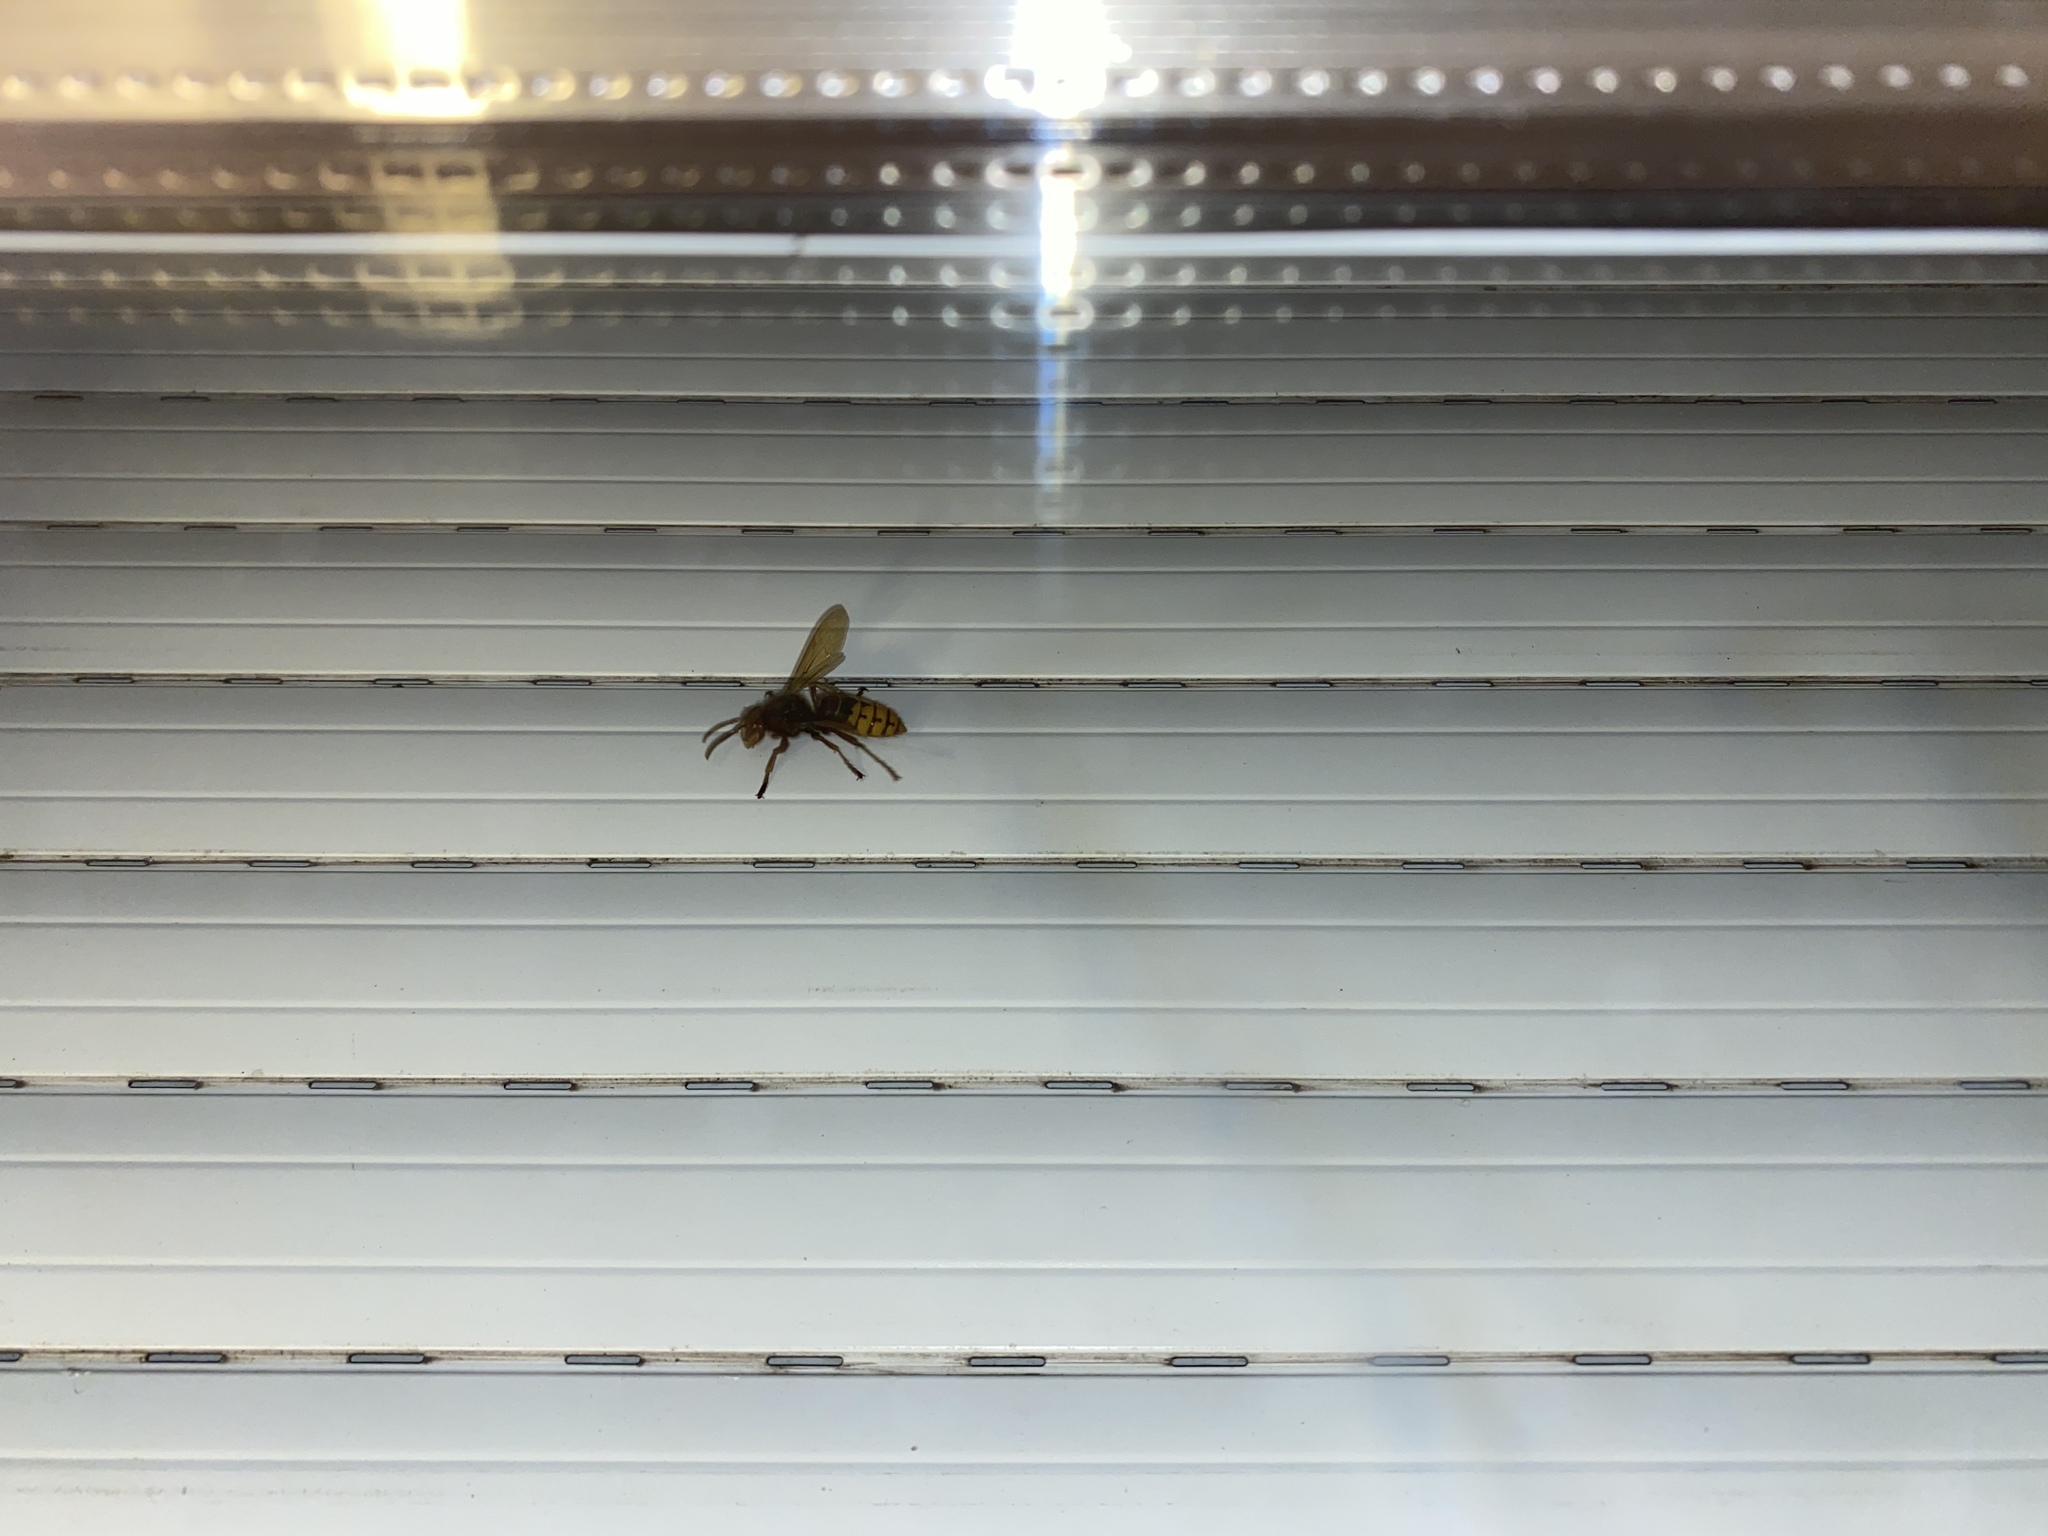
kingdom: Animalia
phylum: Arthropoda
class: Insecta
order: Hymenoptera
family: Vespidae
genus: Vespa
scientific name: Vespa crabro
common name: Hornet
